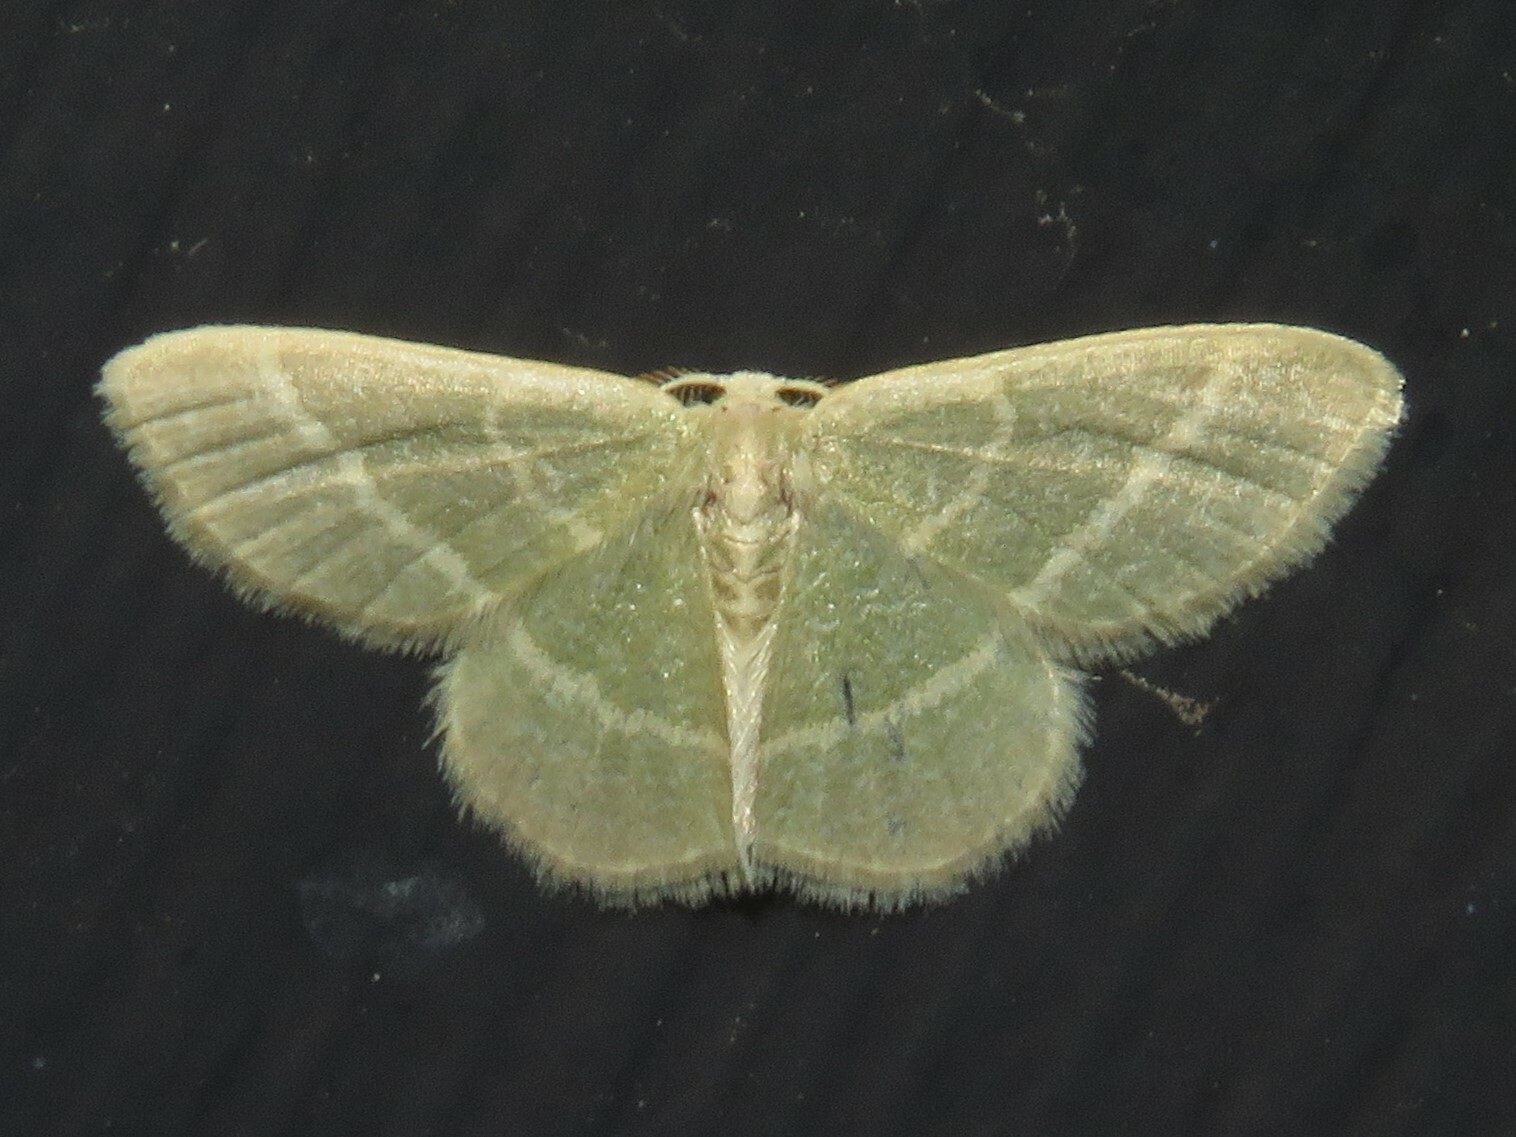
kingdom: Animalia
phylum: Arthropoda
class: Insecta
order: Lepidoptera
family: Geometridae
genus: Chlorochlamys
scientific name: Chlorochlamys chloroleucaria
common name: Blackberry looper
